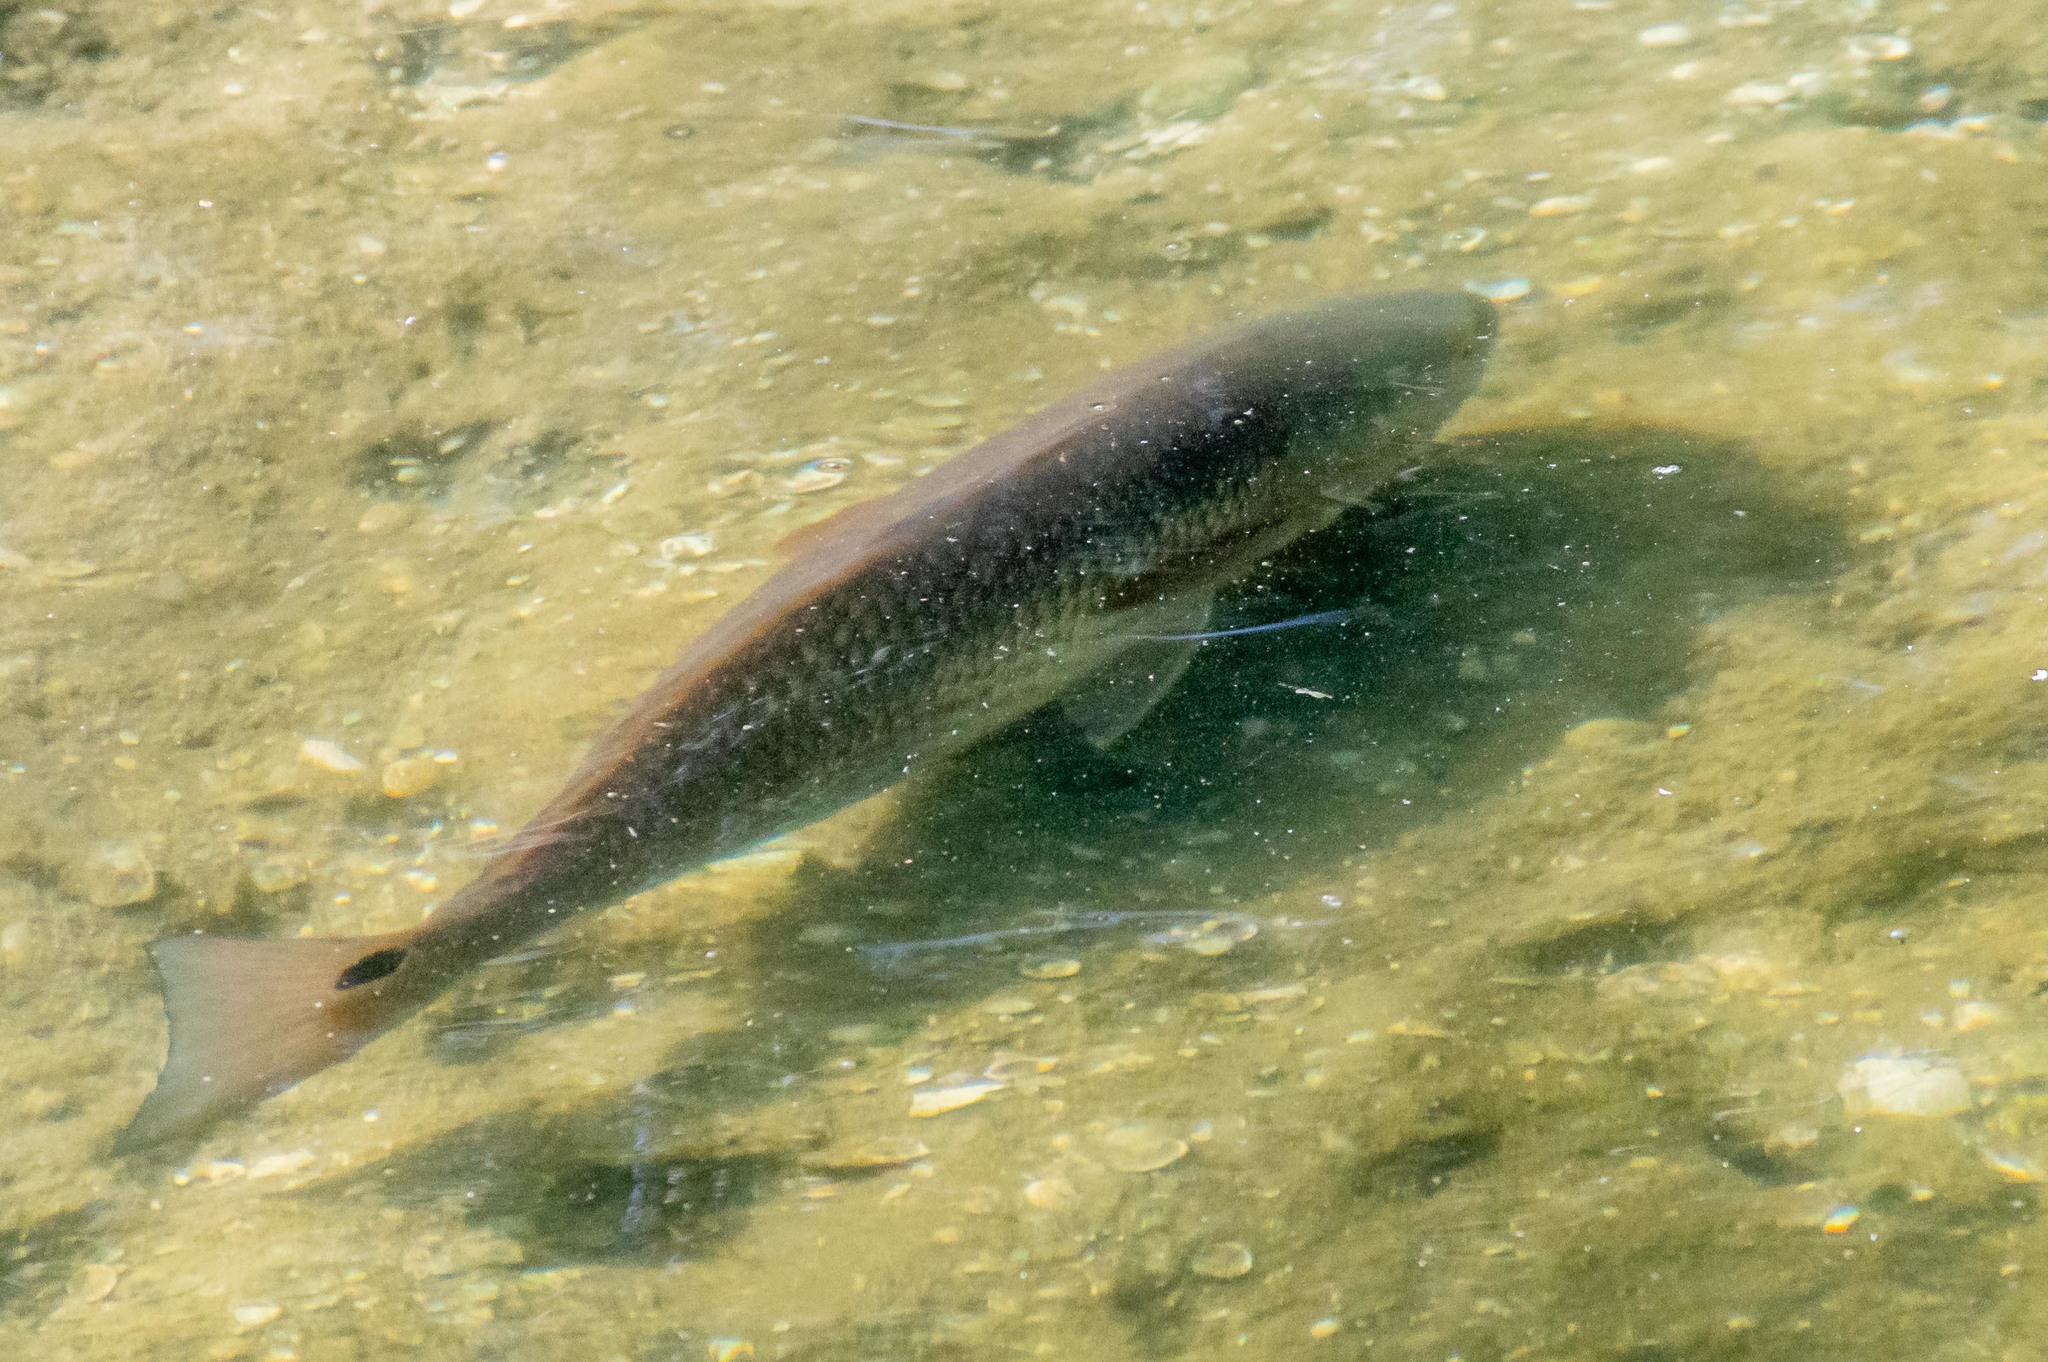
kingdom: Animalia
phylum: Chordata
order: Perciformes
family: Sciaenidae
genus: Sciaenops
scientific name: Sciaenops ocellatus
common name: Red drum
